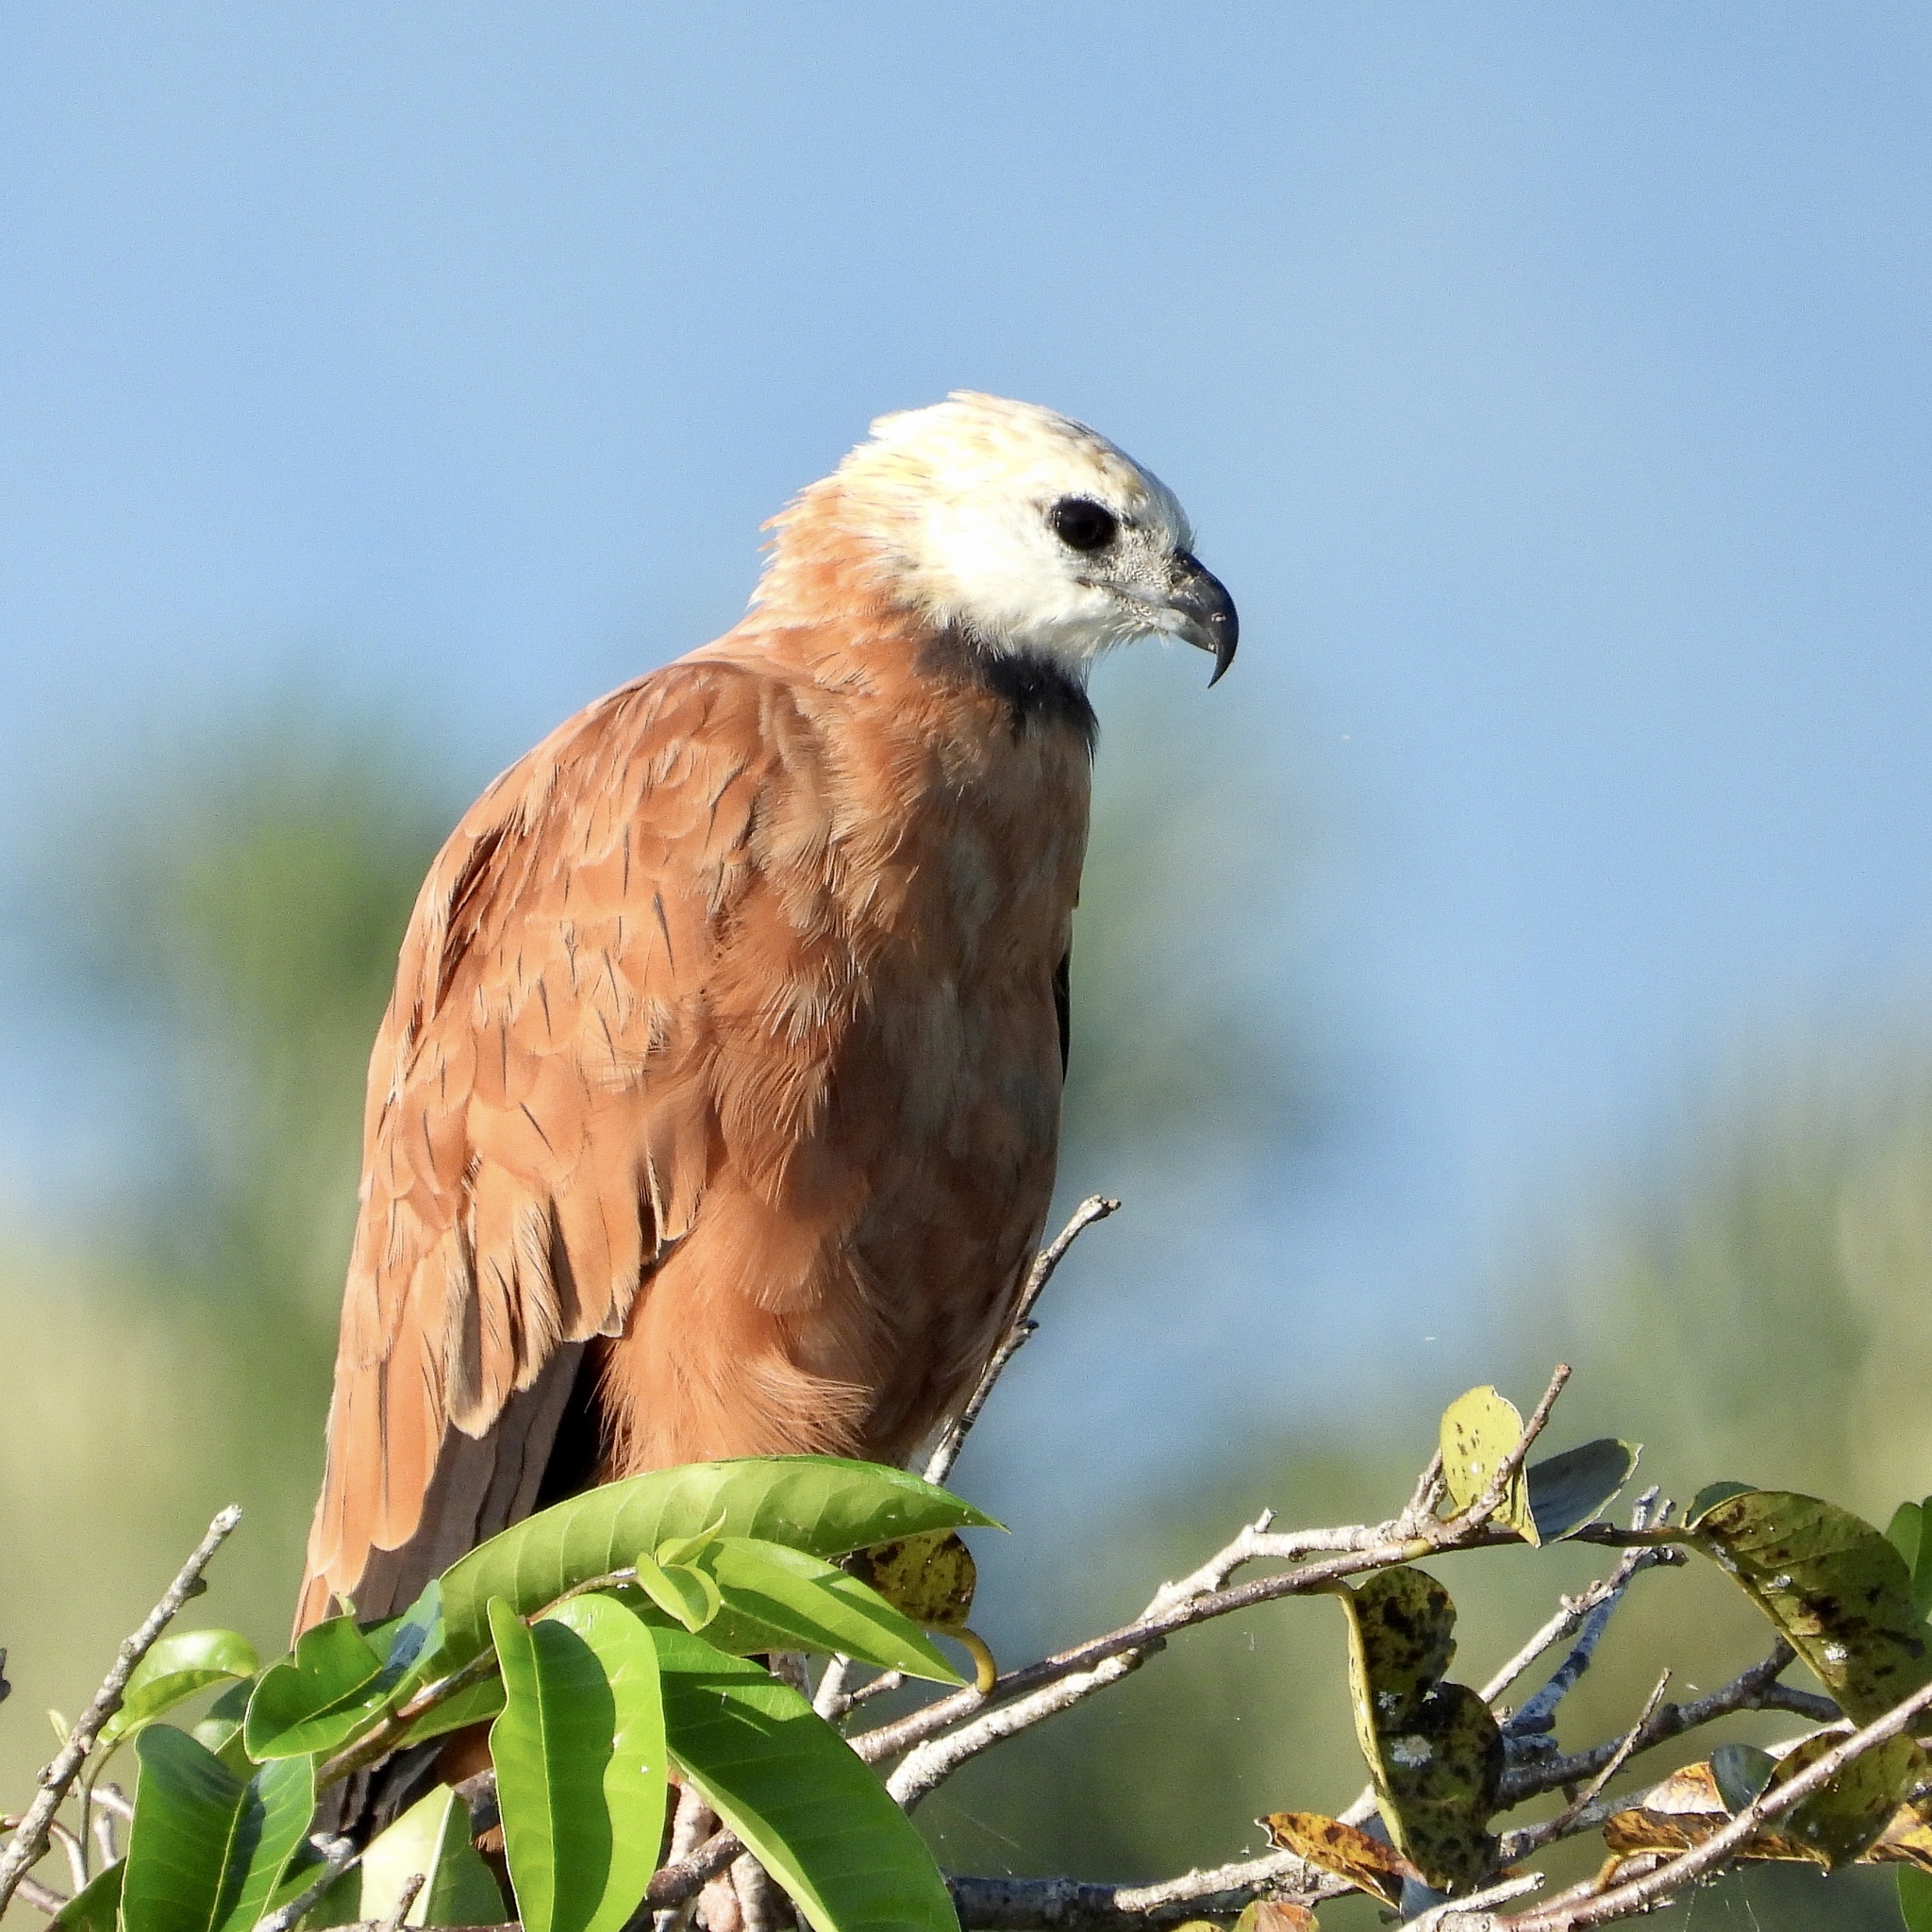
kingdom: Animalia
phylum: Chordata
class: Aves
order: Accipitriformes
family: Accipitridae
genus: Busarellus
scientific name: Busarellus nigricollis
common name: Black-collared hawk
